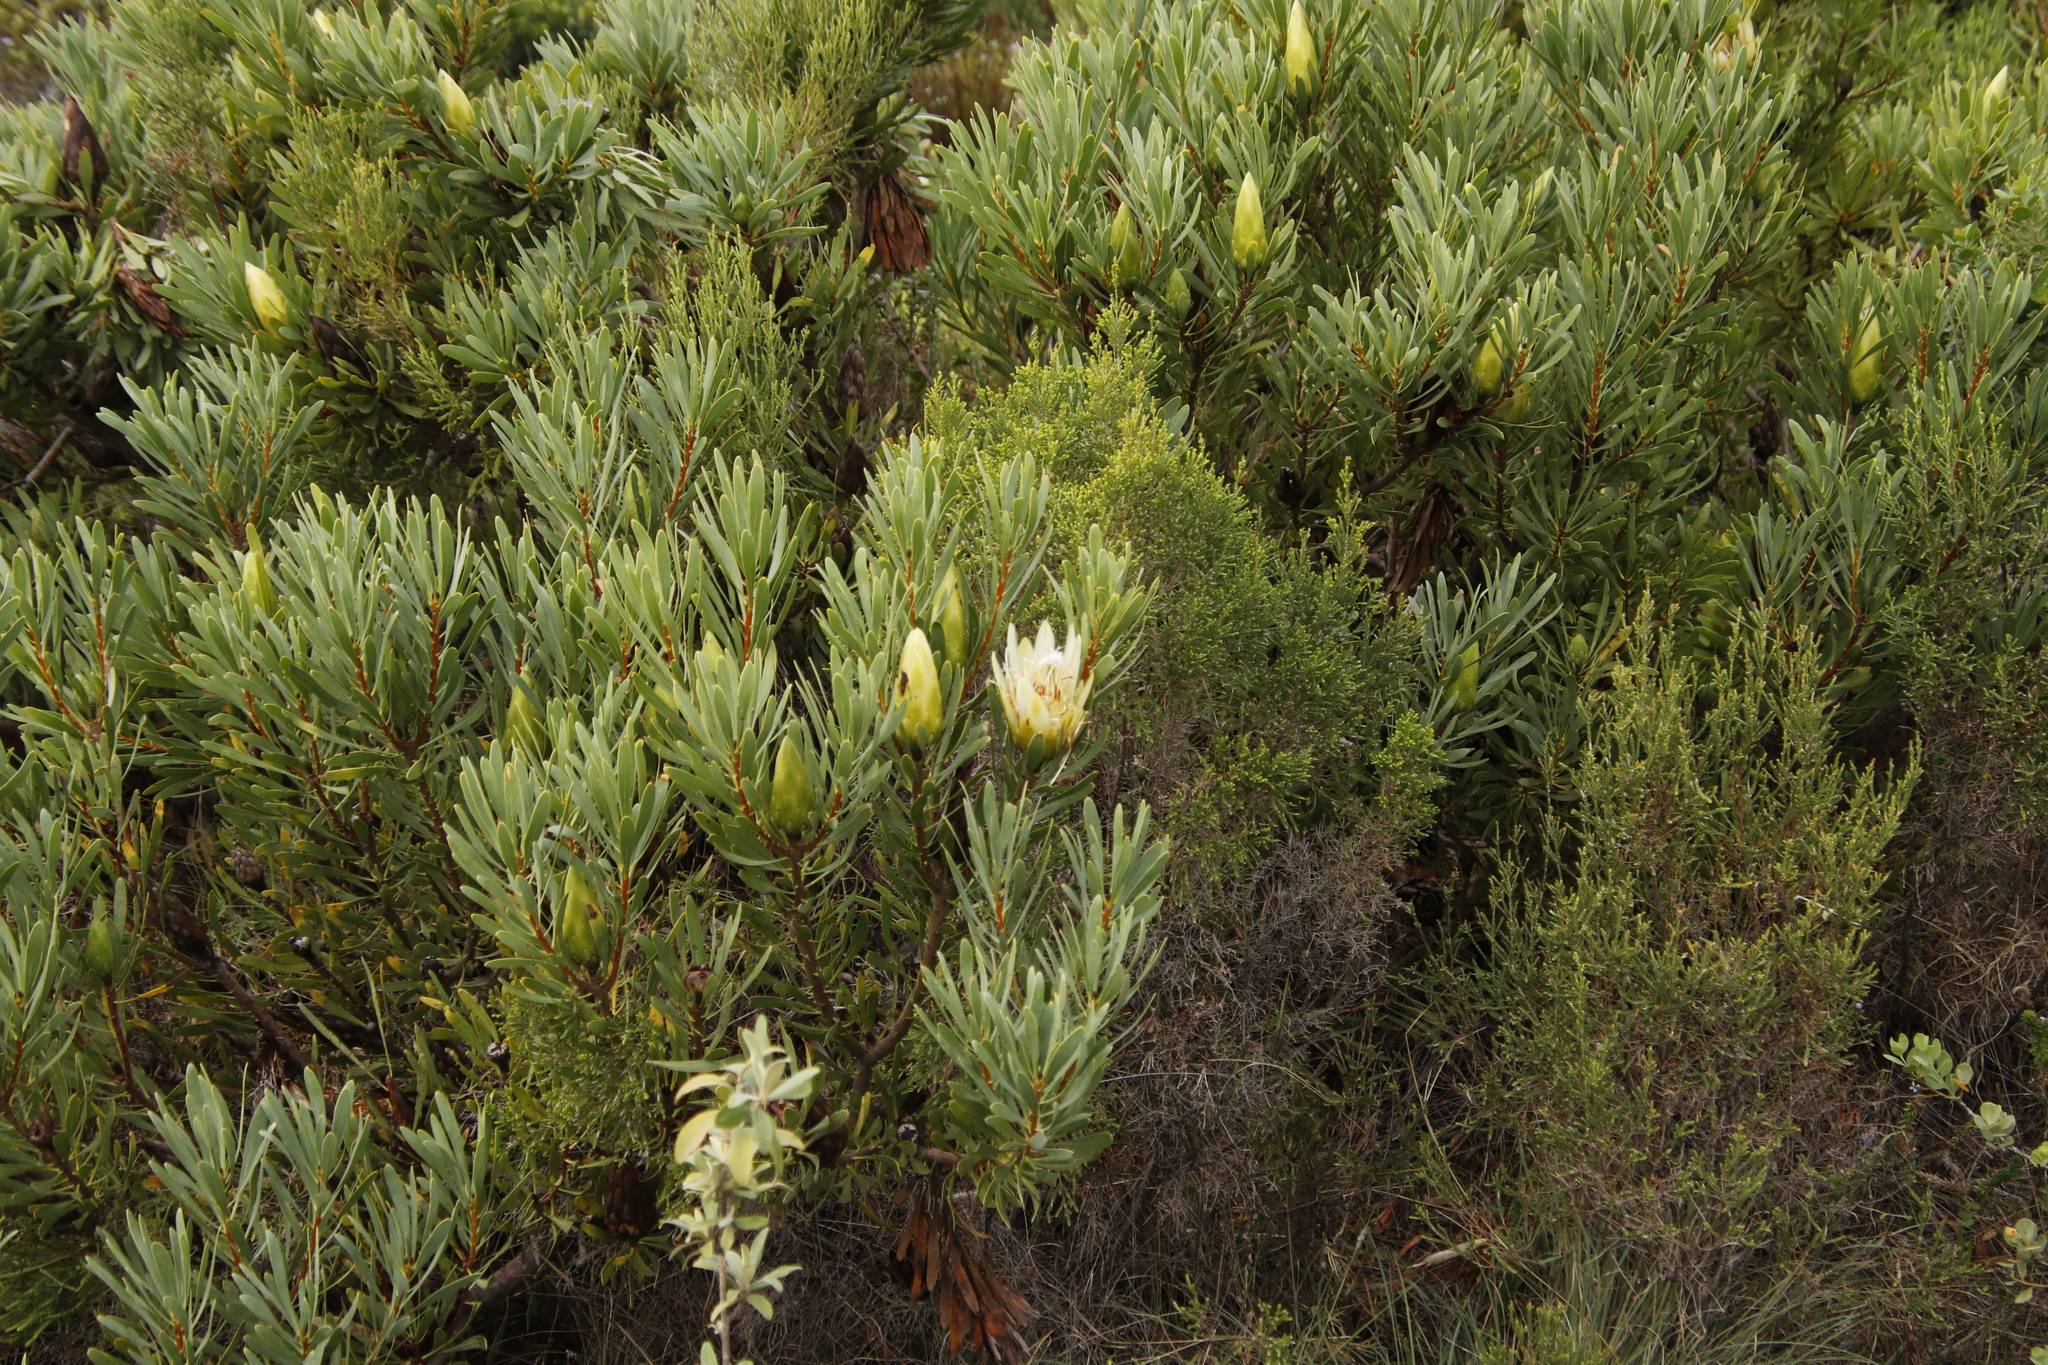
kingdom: Plantae
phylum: Tracheophyta
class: Magnoliopsida
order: Proteales
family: Proteaceae
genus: Protea
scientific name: Protea repens
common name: Sugarbush
